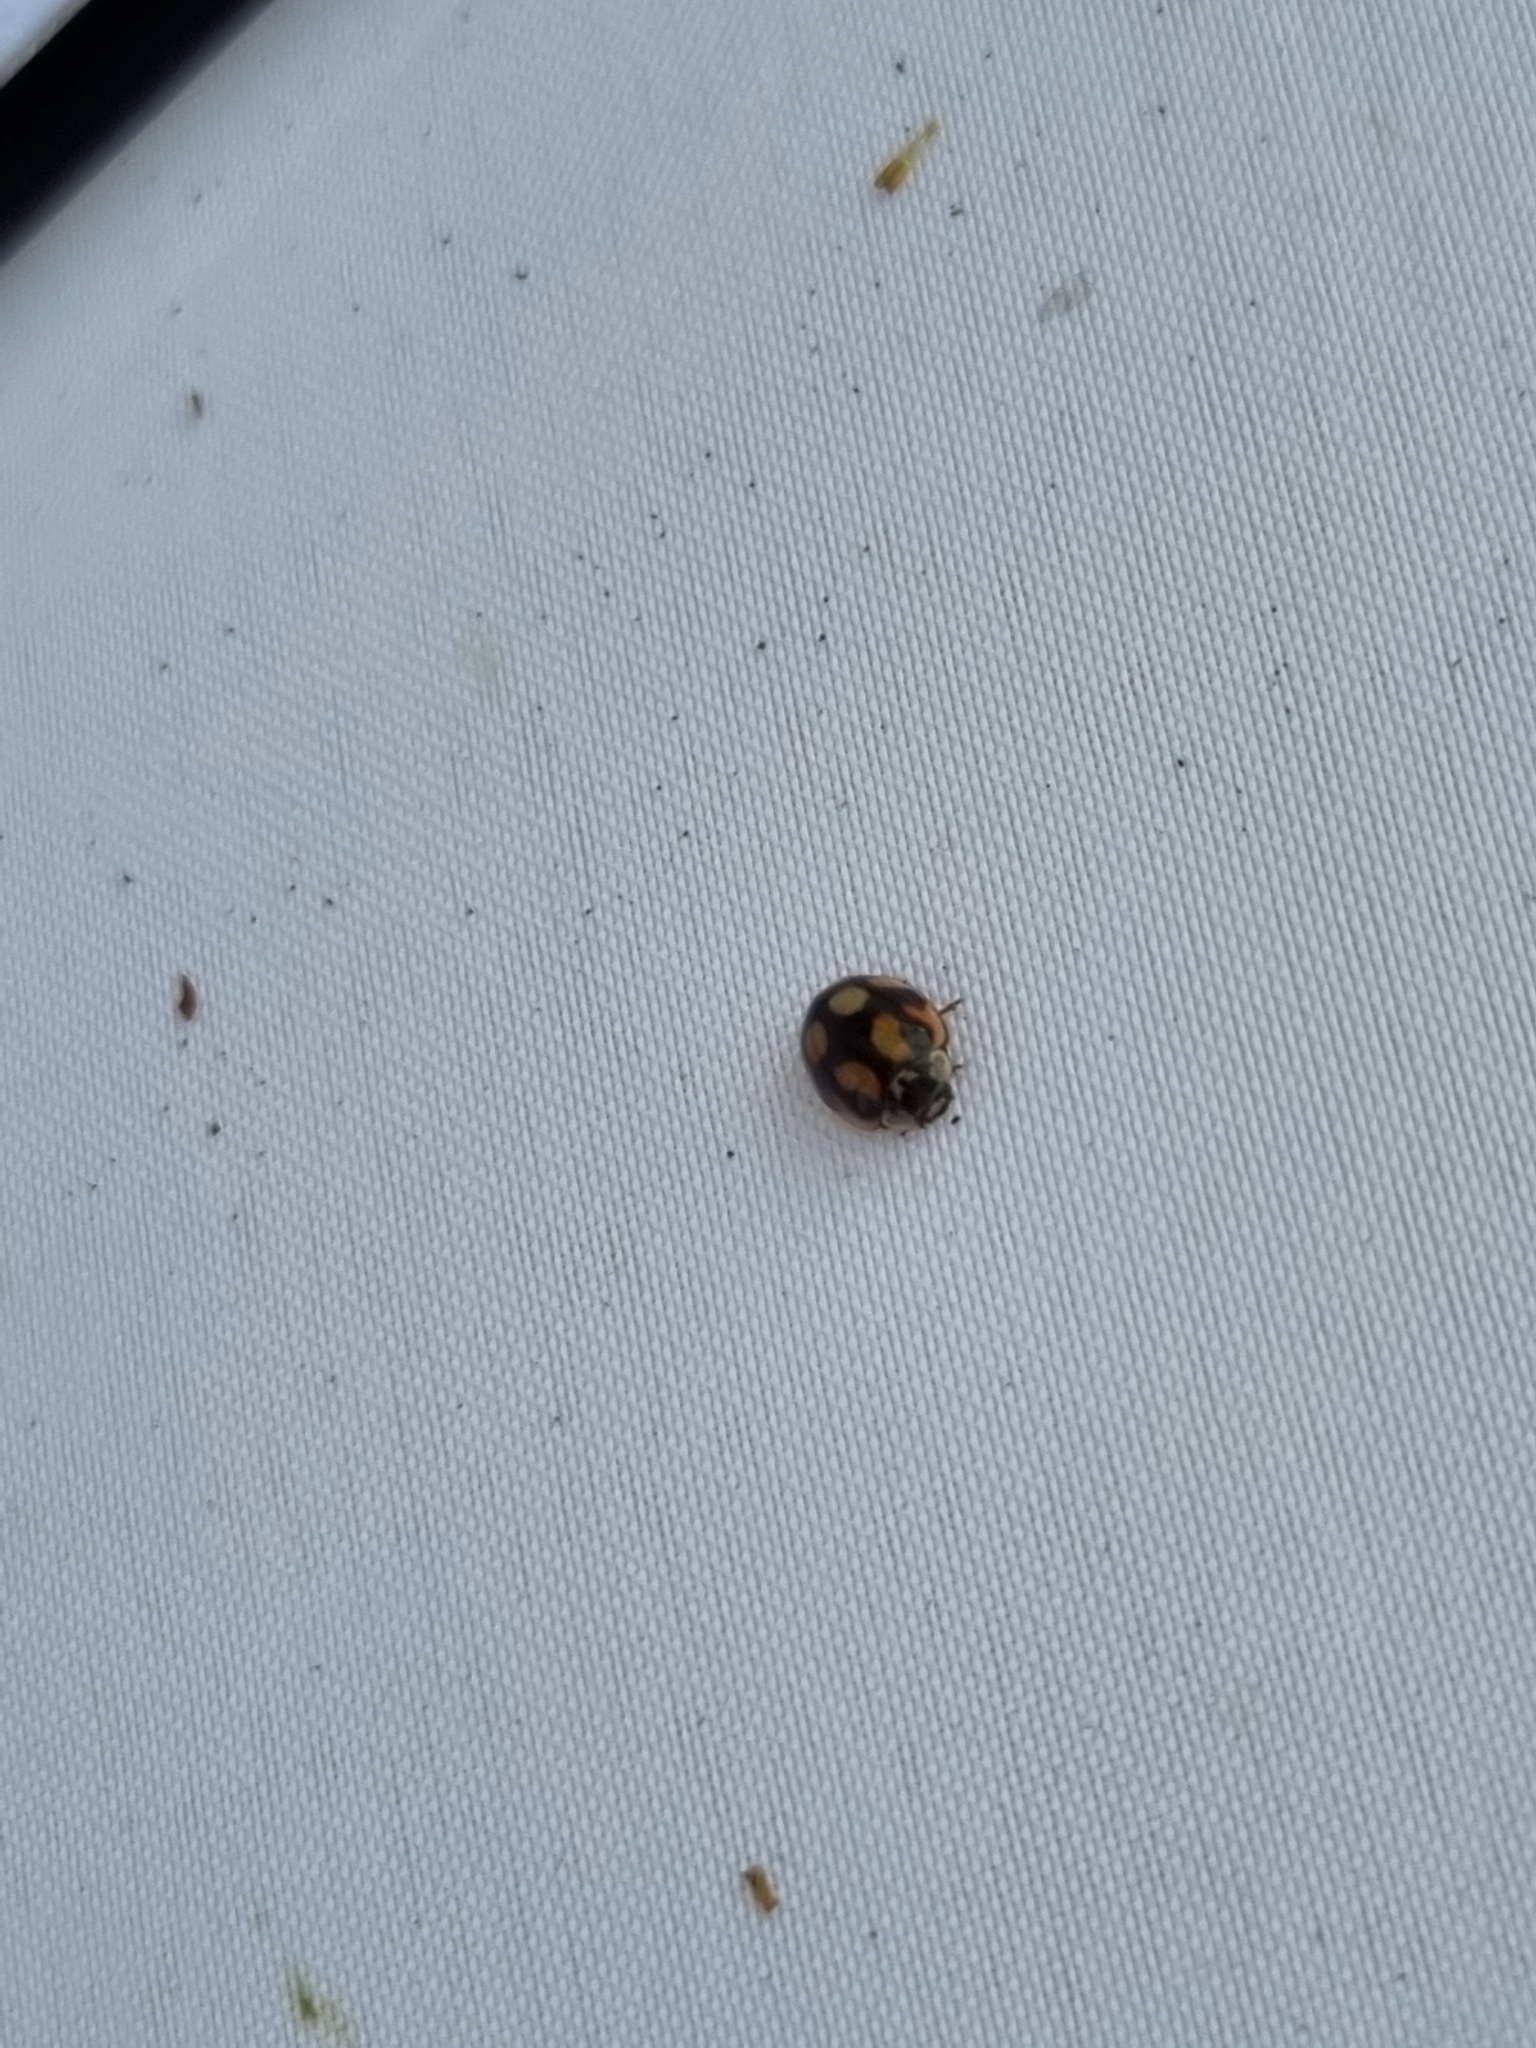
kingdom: Animalia
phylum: Arthropoda
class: Insecta
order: Coleoptera
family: Coccinellidae
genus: Adalia
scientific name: Adalia decempunctata
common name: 10-spot ladybird
